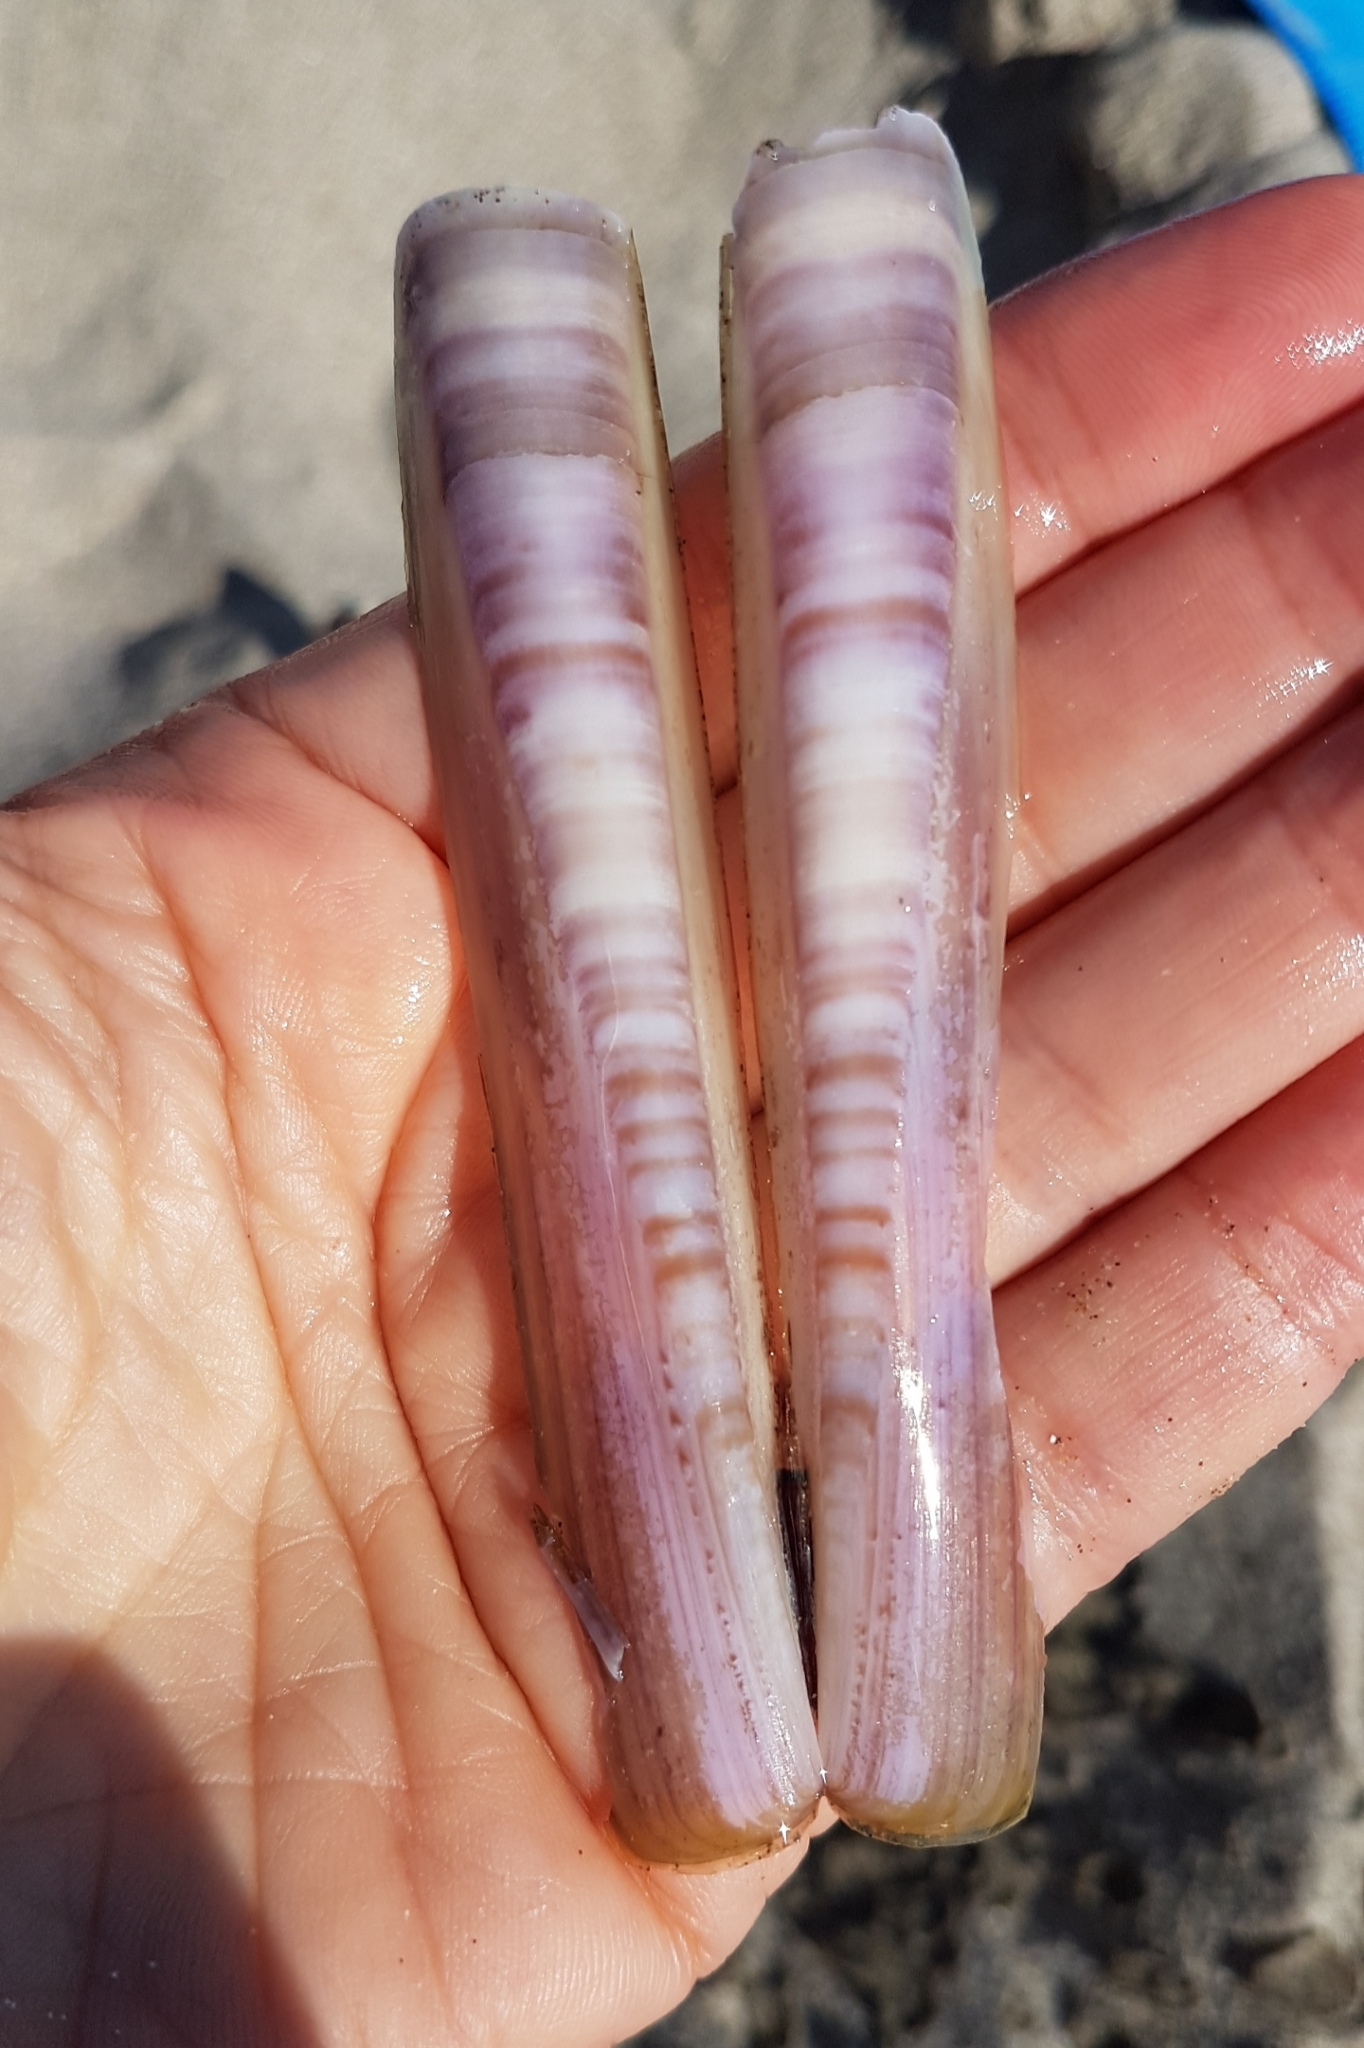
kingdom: Animalia
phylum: Mollusca
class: Bivalvia
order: Adapedonta
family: Pharidae
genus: Ensis
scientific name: Ensis minor
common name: Minor jackknife clam
